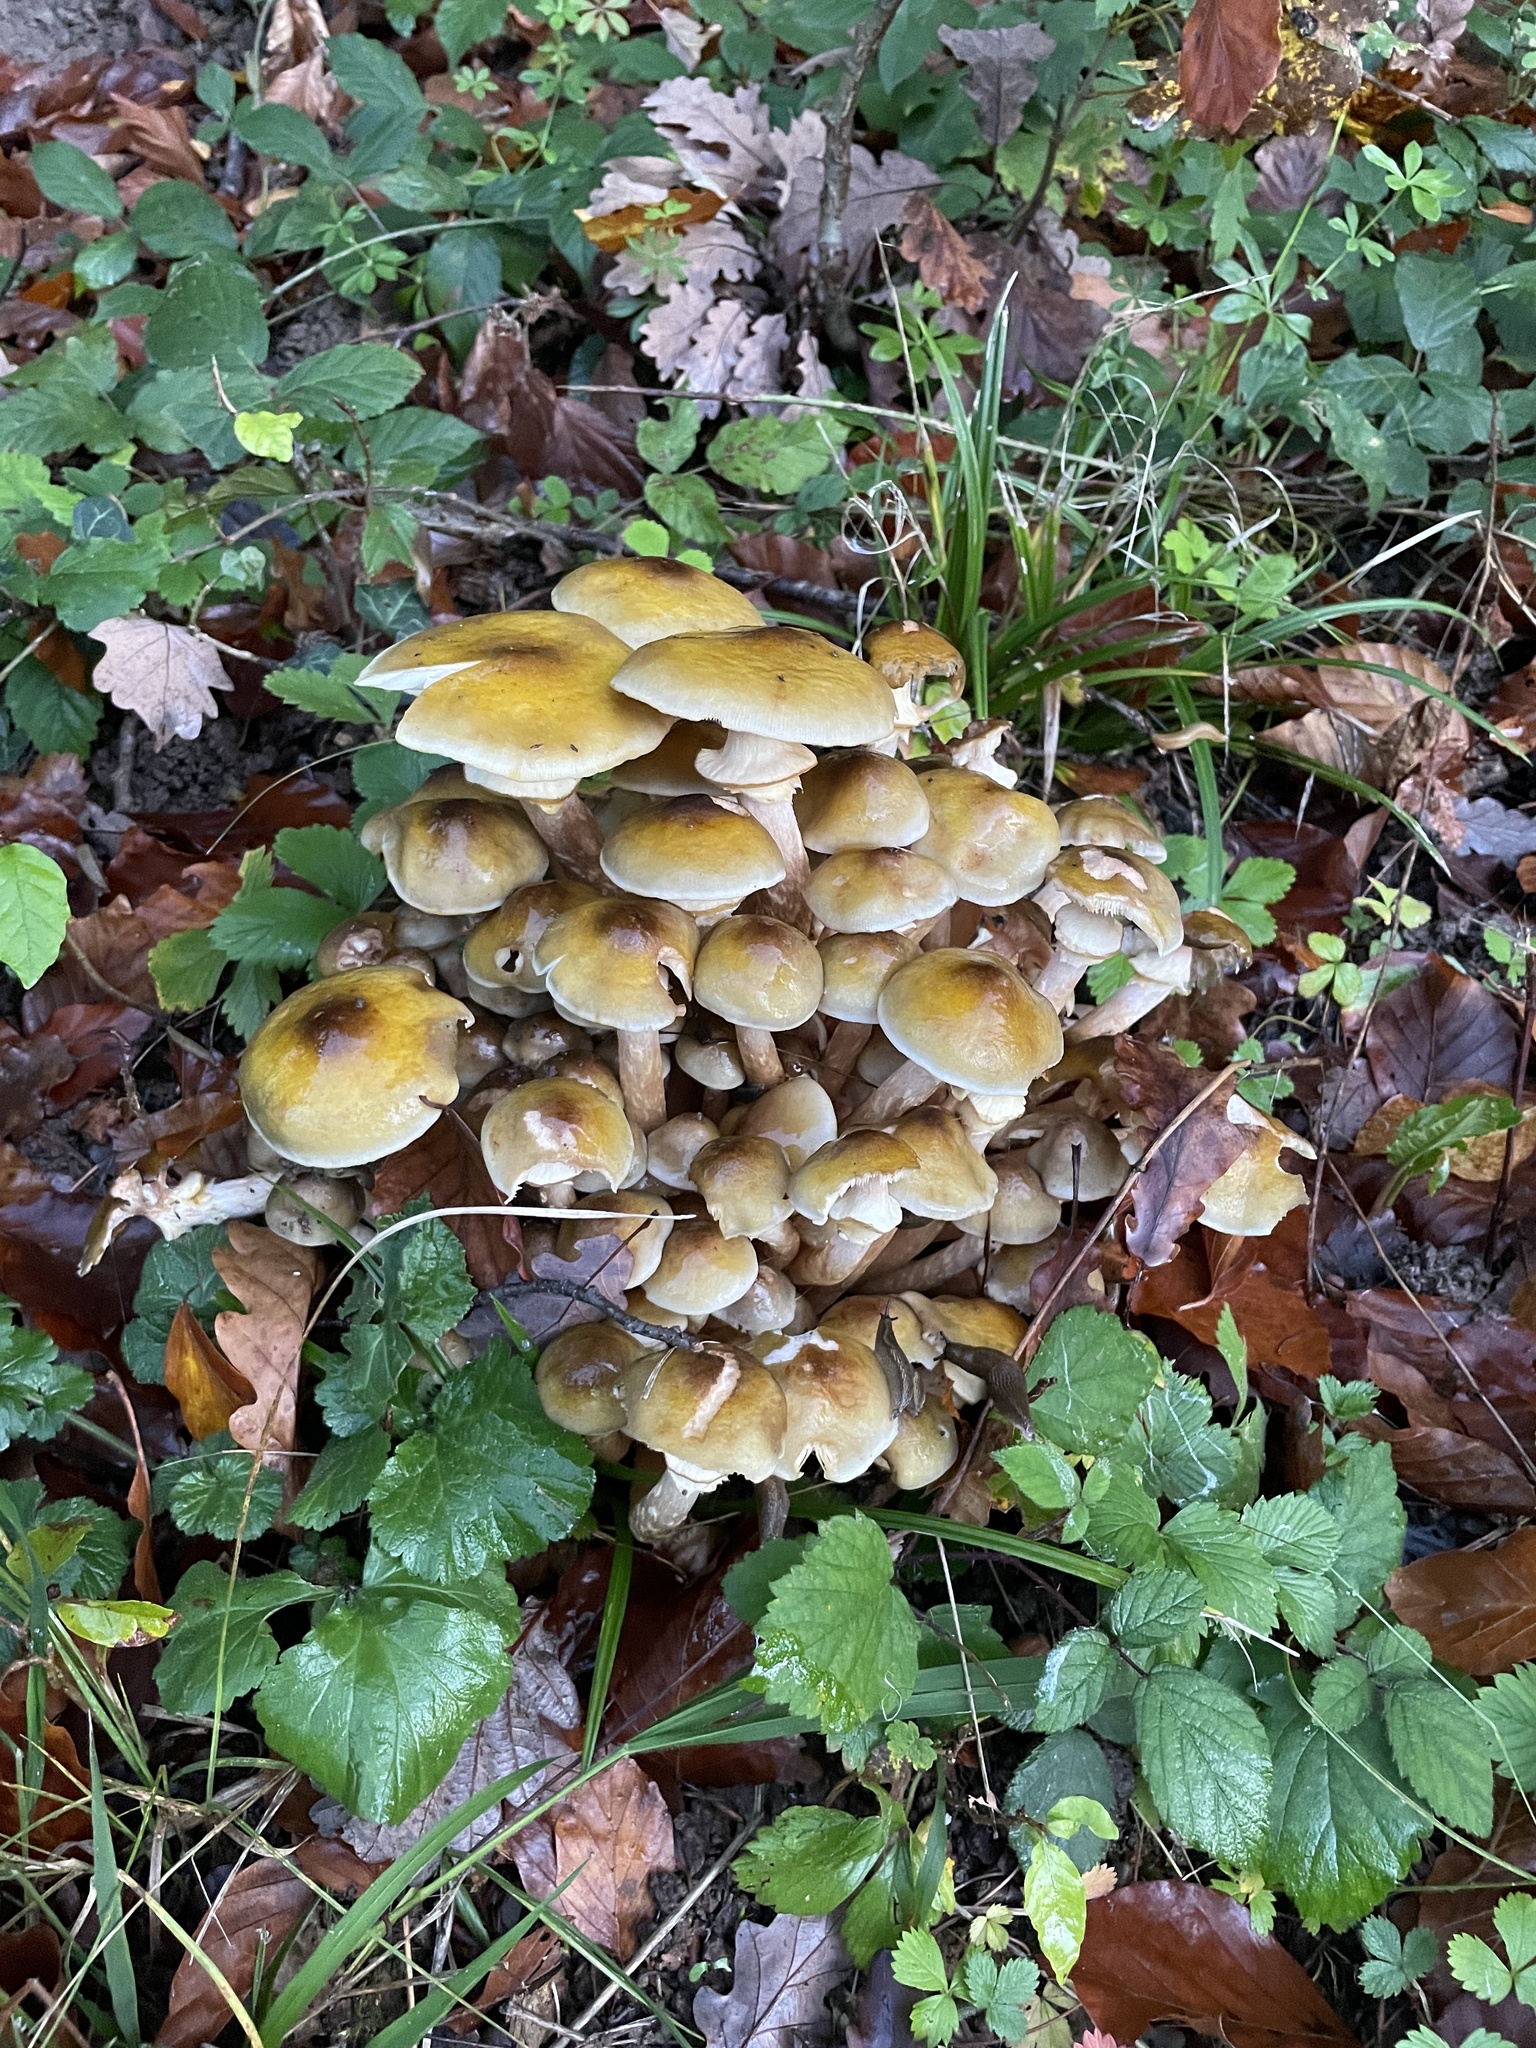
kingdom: Fungi
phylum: Basidiomycota
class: Agaricomycetes
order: Agaricales
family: Physalacriaceae
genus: Armillaria
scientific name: Armillaria mellea
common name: Honey fungus
